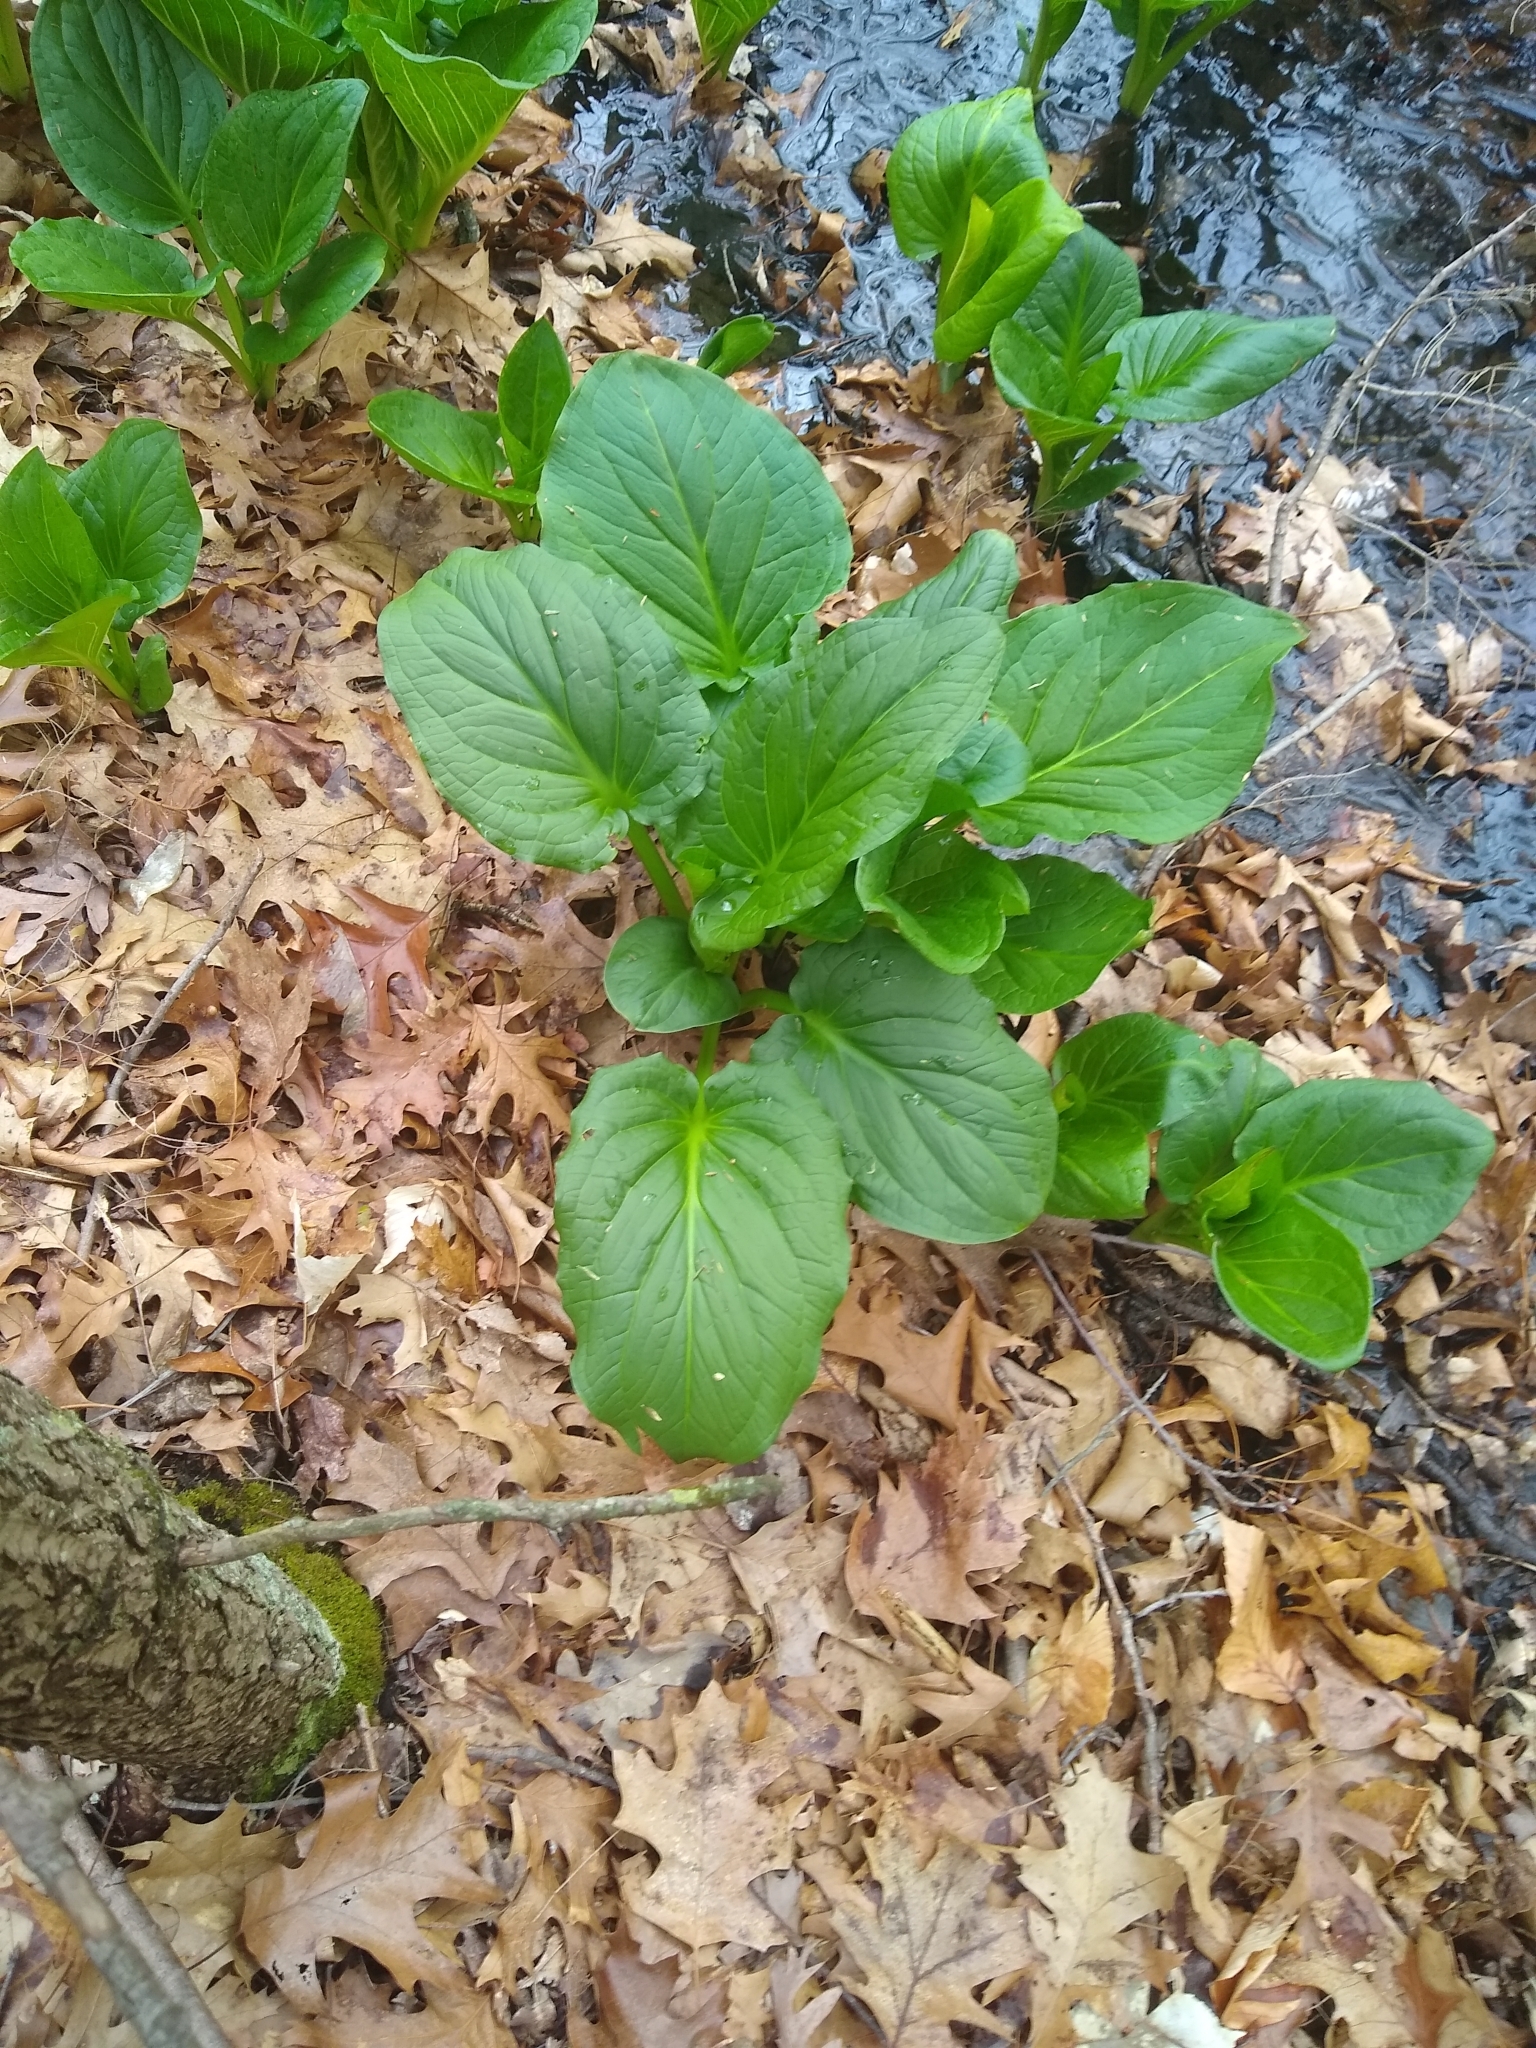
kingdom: Plantae
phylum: Tracheophyta
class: Liliopsida
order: Alismatales
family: Araceae
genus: Symplocarpus
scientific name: Symplocarpus foetidus
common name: Eastern skunk cabbage
